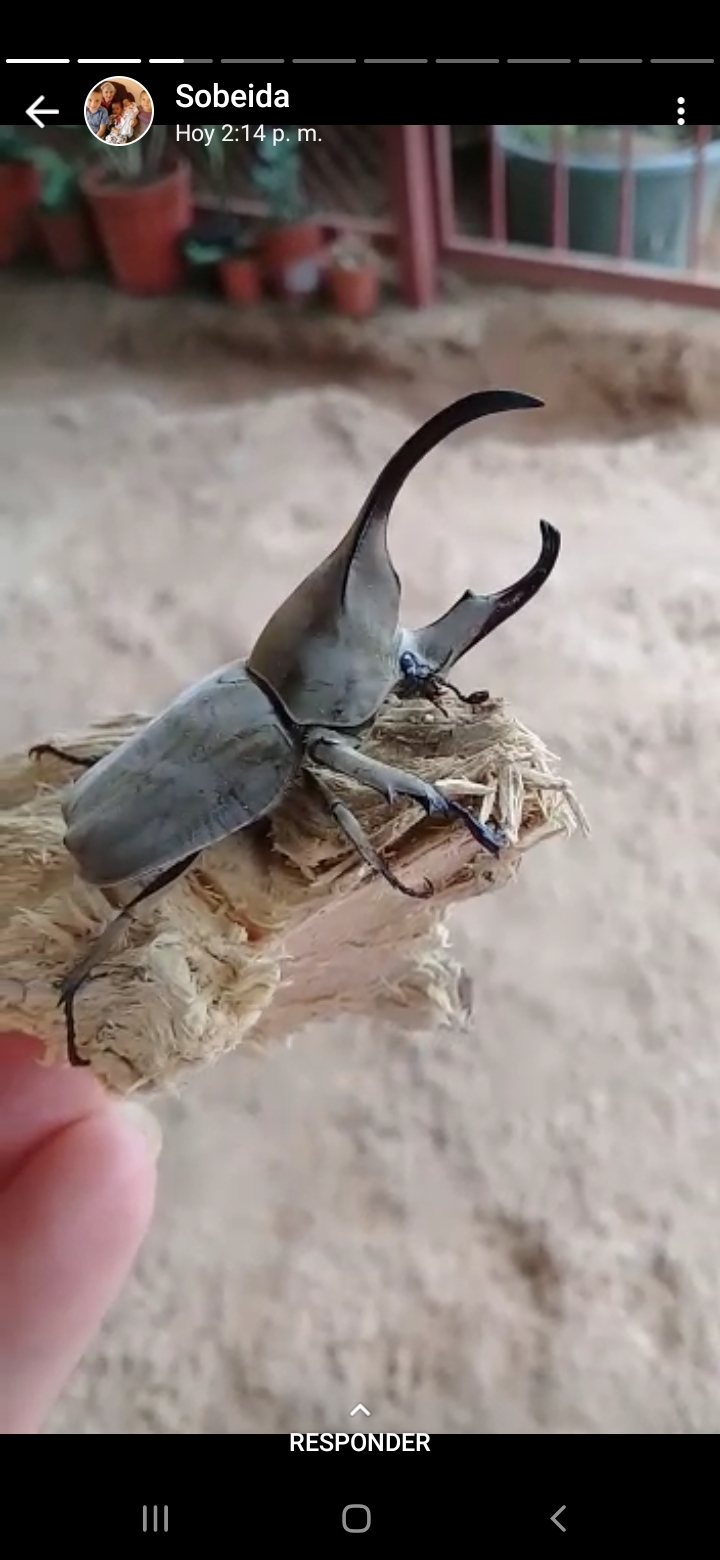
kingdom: Animalia
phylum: Arthropoda
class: Insecta
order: Coleoptera
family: Scarabaeidae
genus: Spodistes
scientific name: Spodistes batesi
